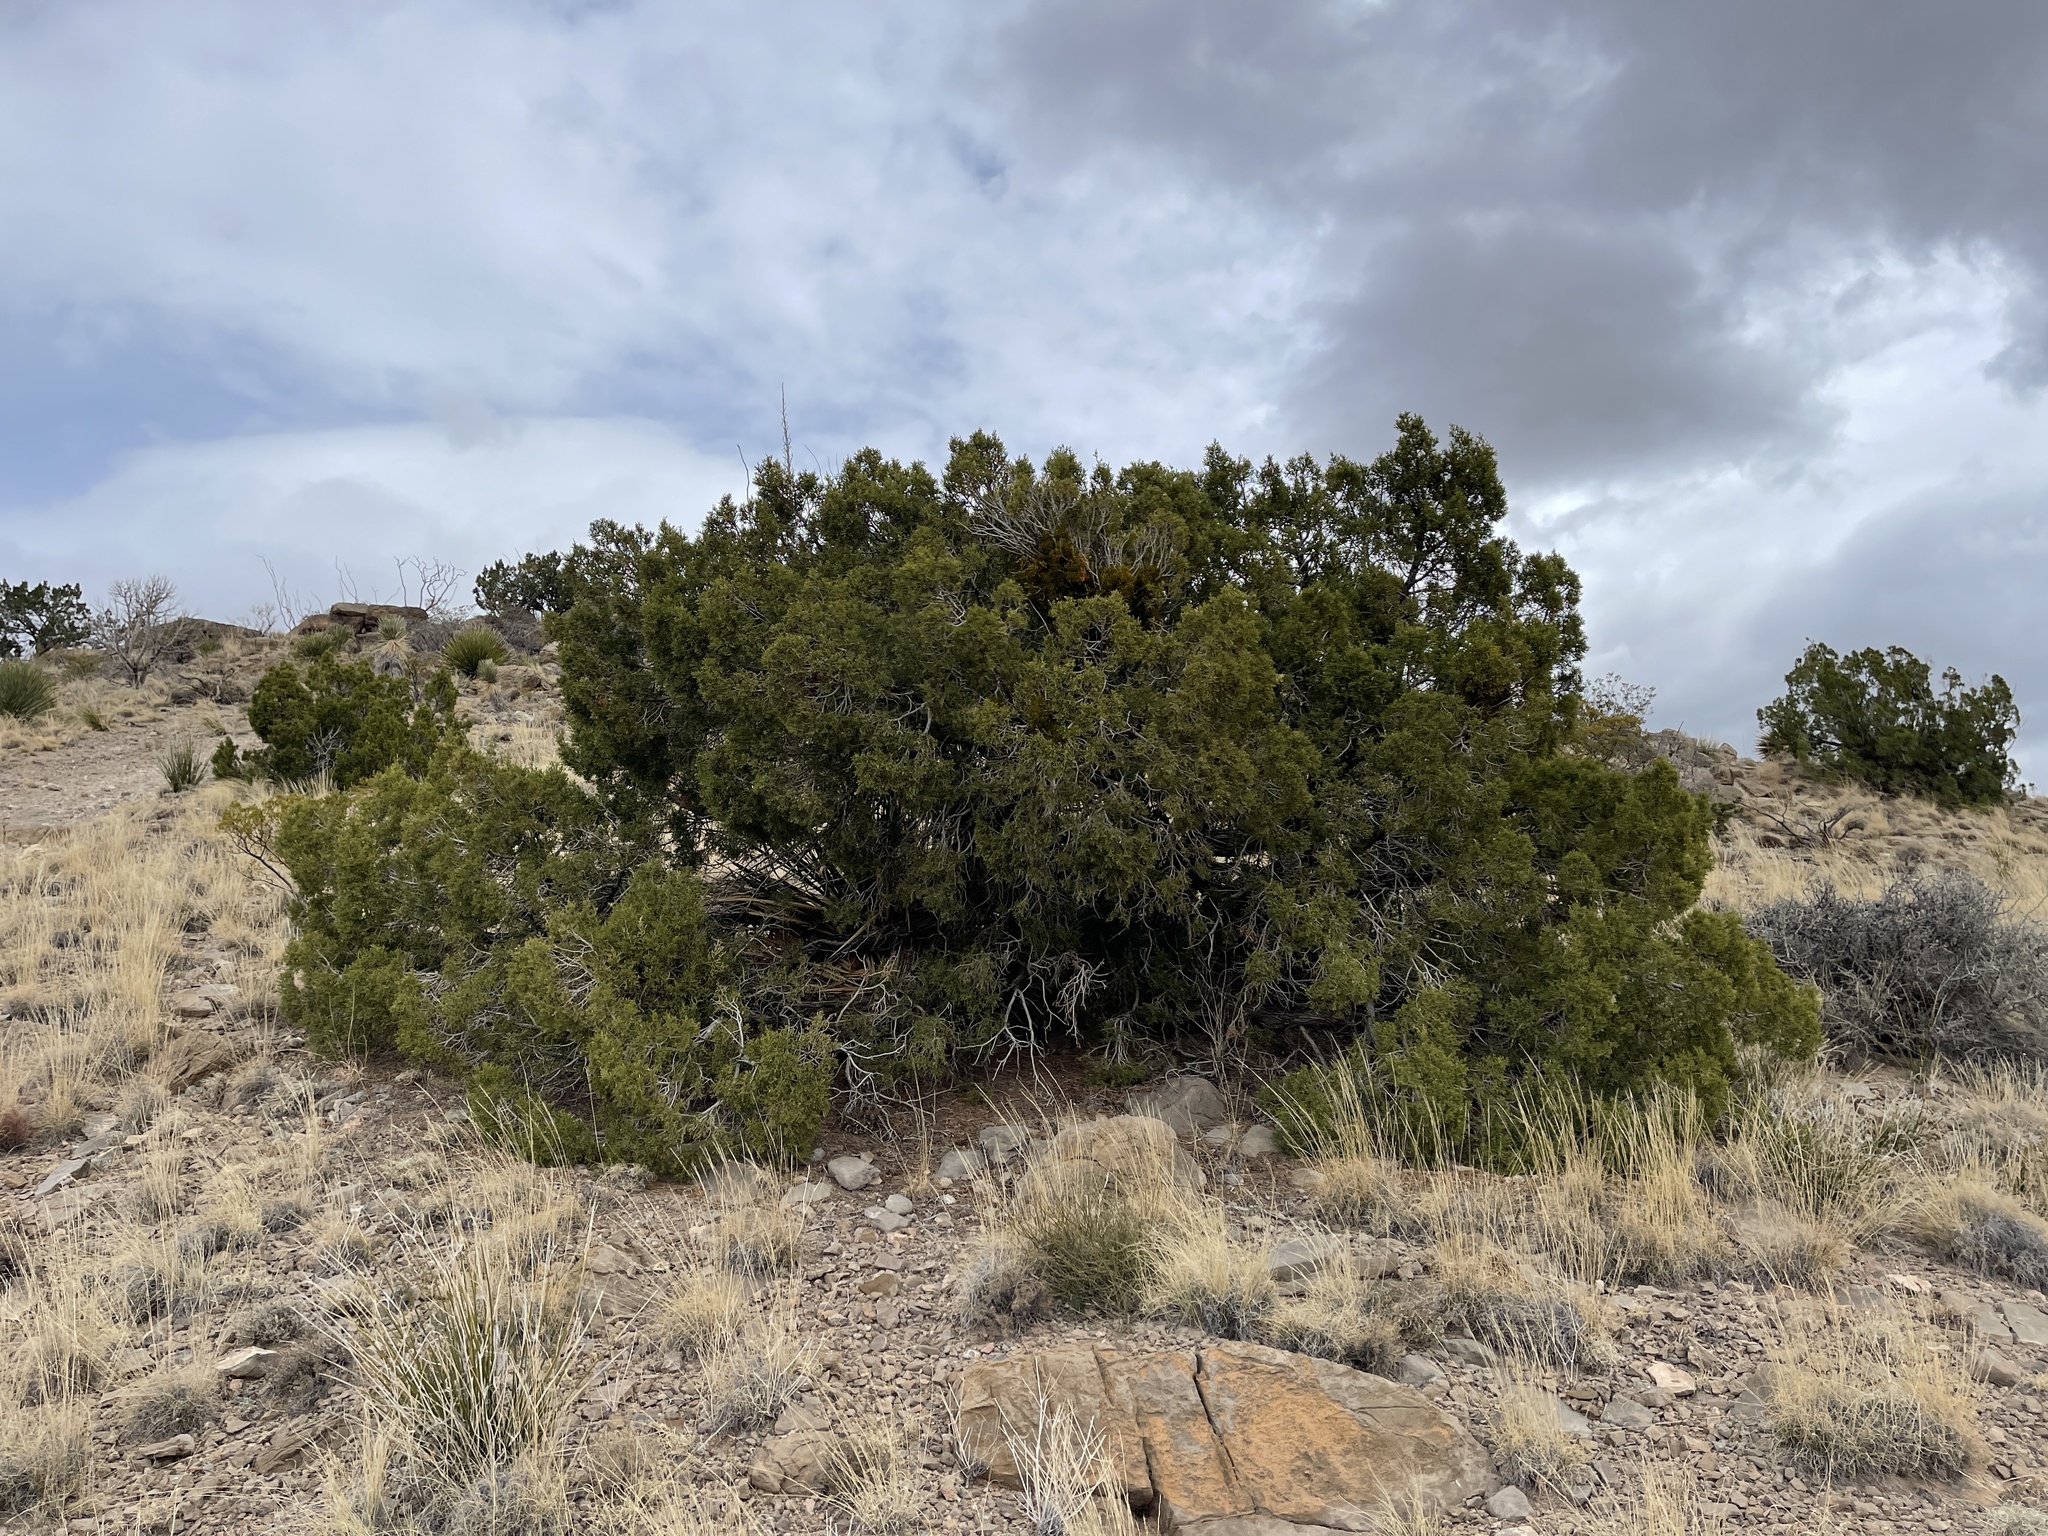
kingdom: Plantae
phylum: Tracheophyta
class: Pinopsida
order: Pinales
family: Cupressaceae
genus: Juniperus
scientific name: Juniperus monosperma
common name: One-seed juniper
